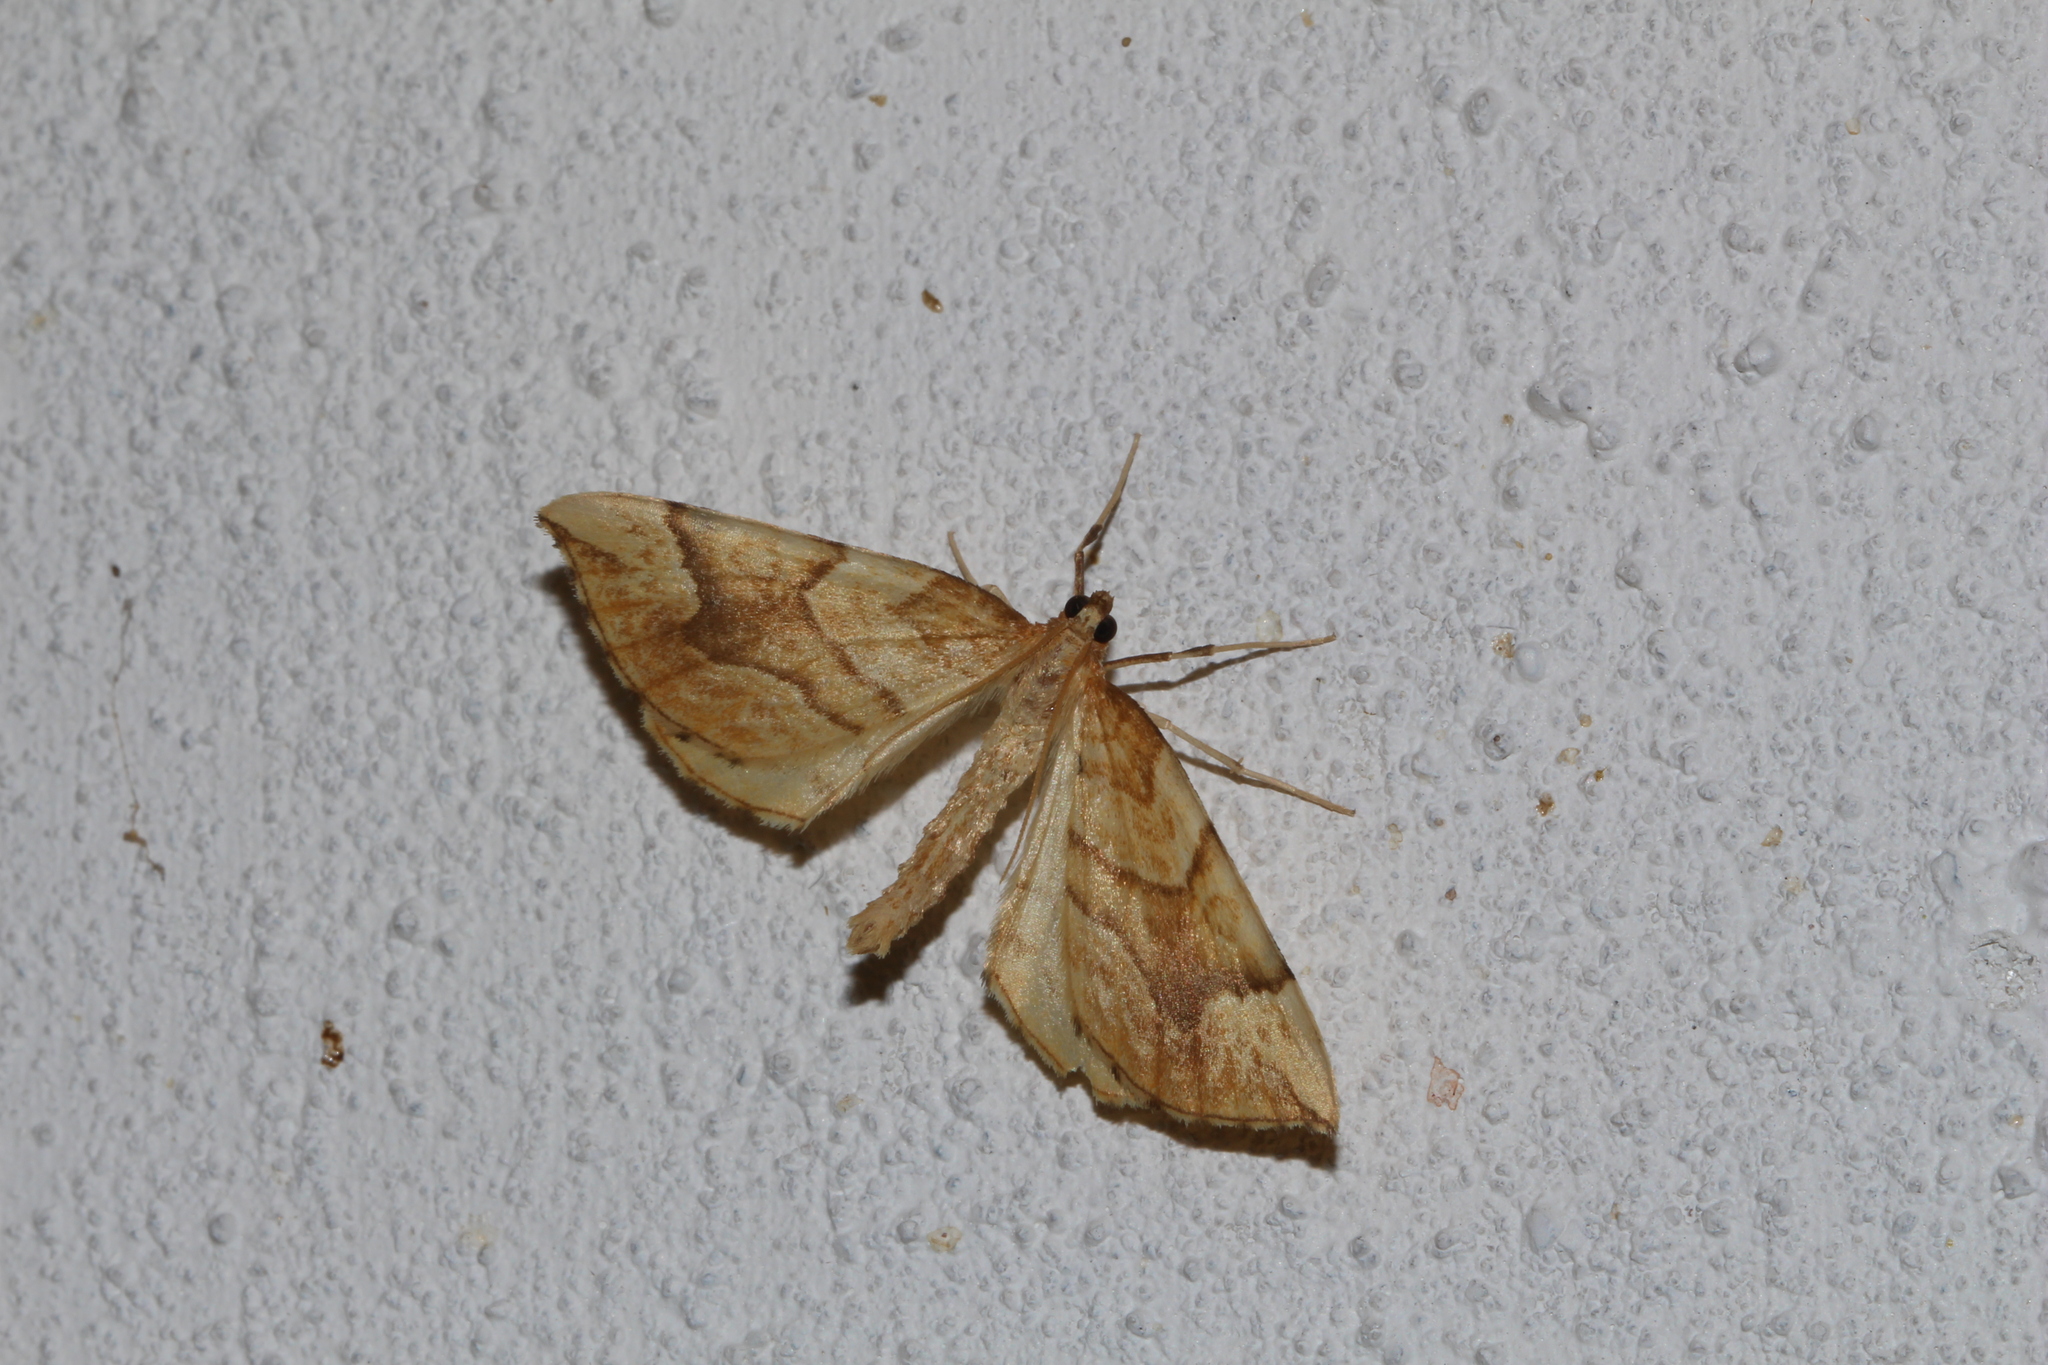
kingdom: Animalia
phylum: Arthropoda
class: Insecta
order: Lepidoptera
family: Geometridae
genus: Eulithis
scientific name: Eulithis mellinata
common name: Spinach
